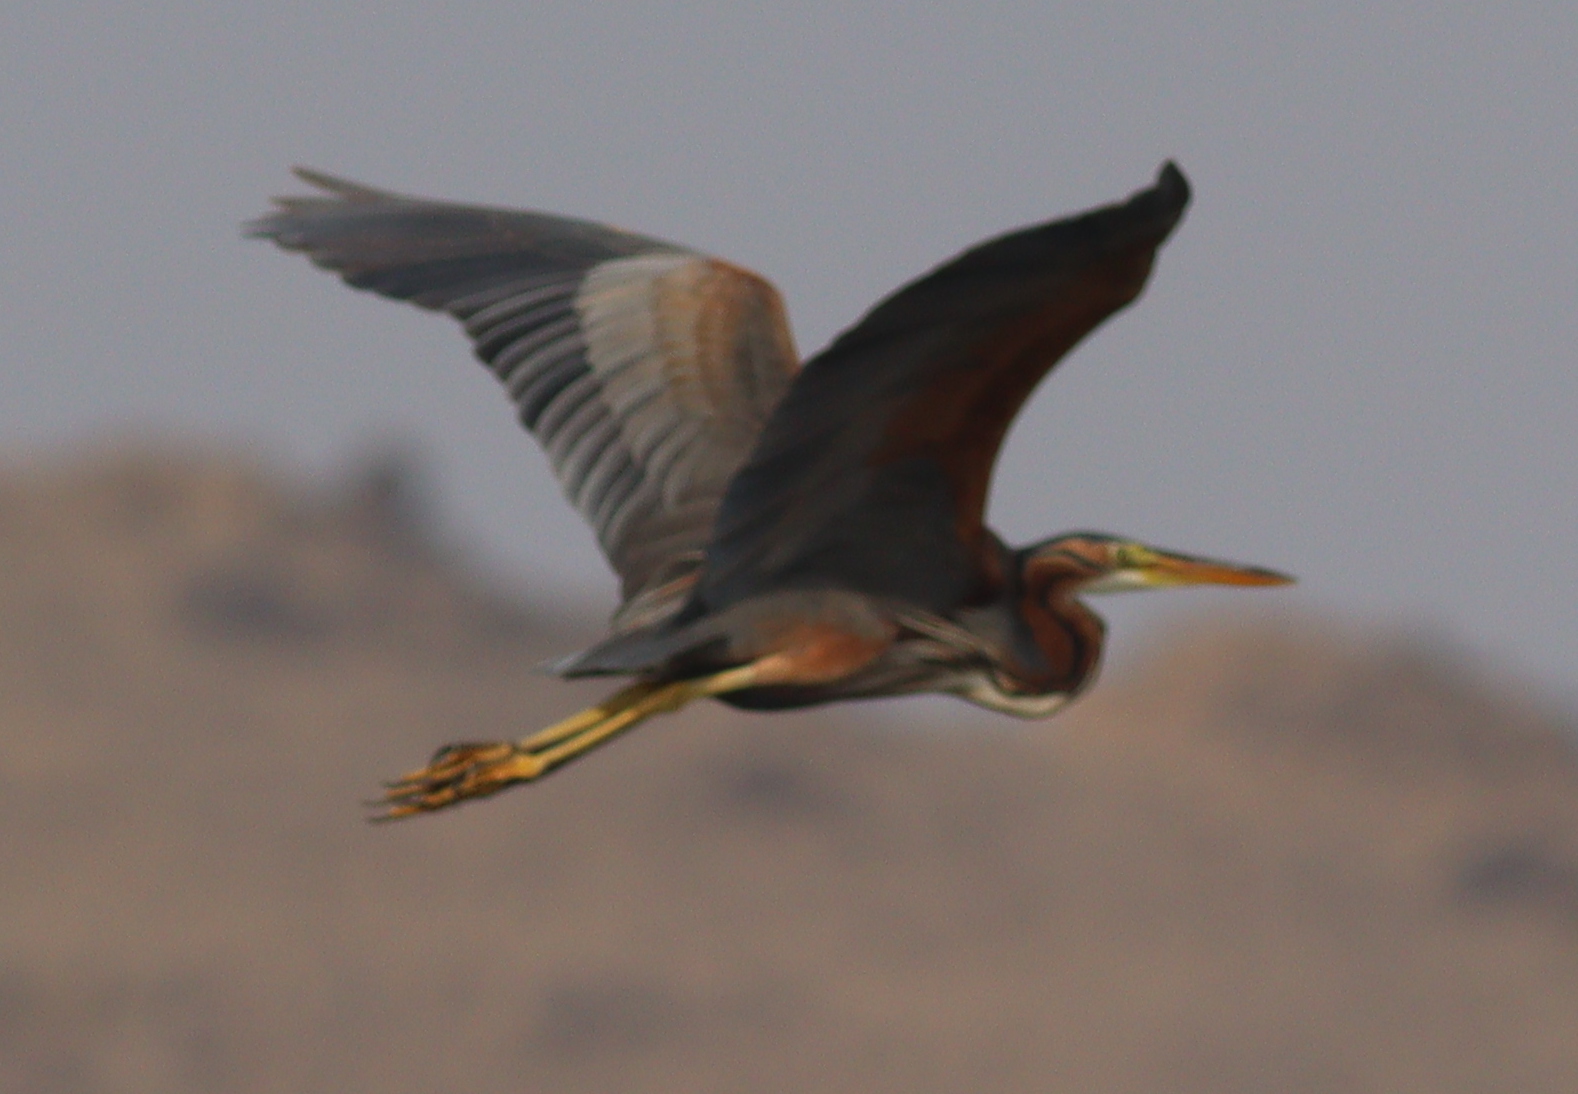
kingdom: Animalia
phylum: Chordata
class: Aves
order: Pelecaniformes
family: Ardeidae
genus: Ardea
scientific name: Ardea purpurea
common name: Purple heron
